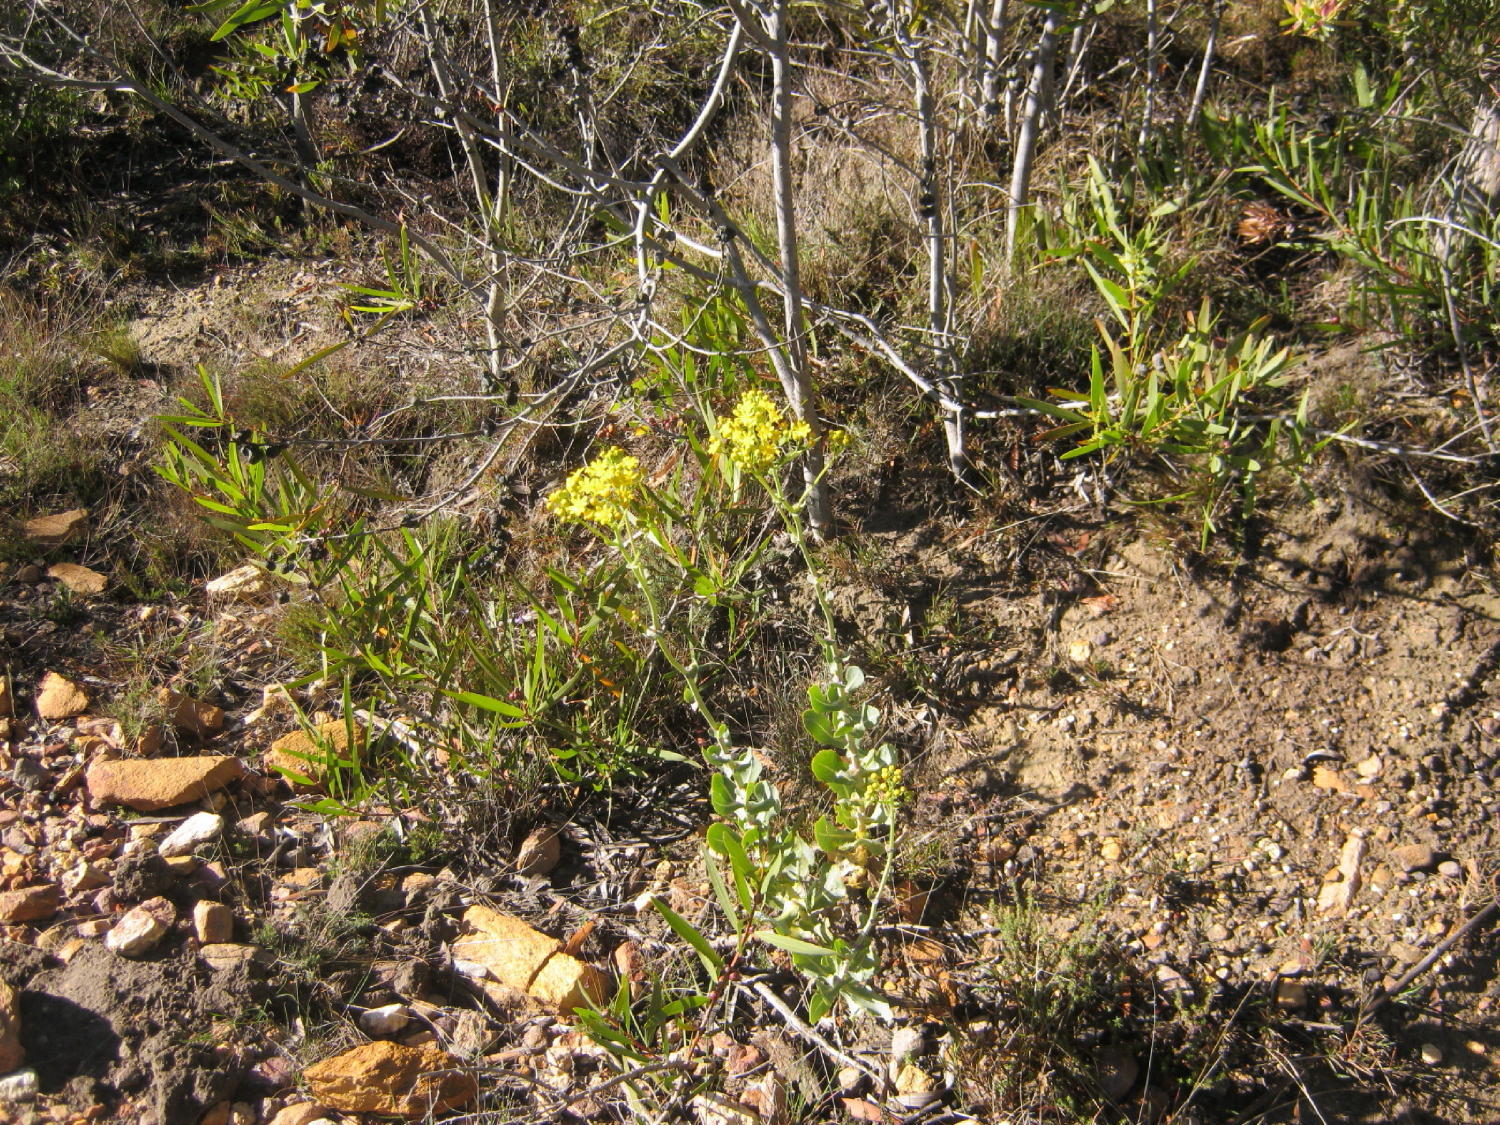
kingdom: Plantae
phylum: Tracheophyta
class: Magnoliopsida
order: Asterales
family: Asteraceae
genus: Othonna
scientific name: Othonna parviflora
